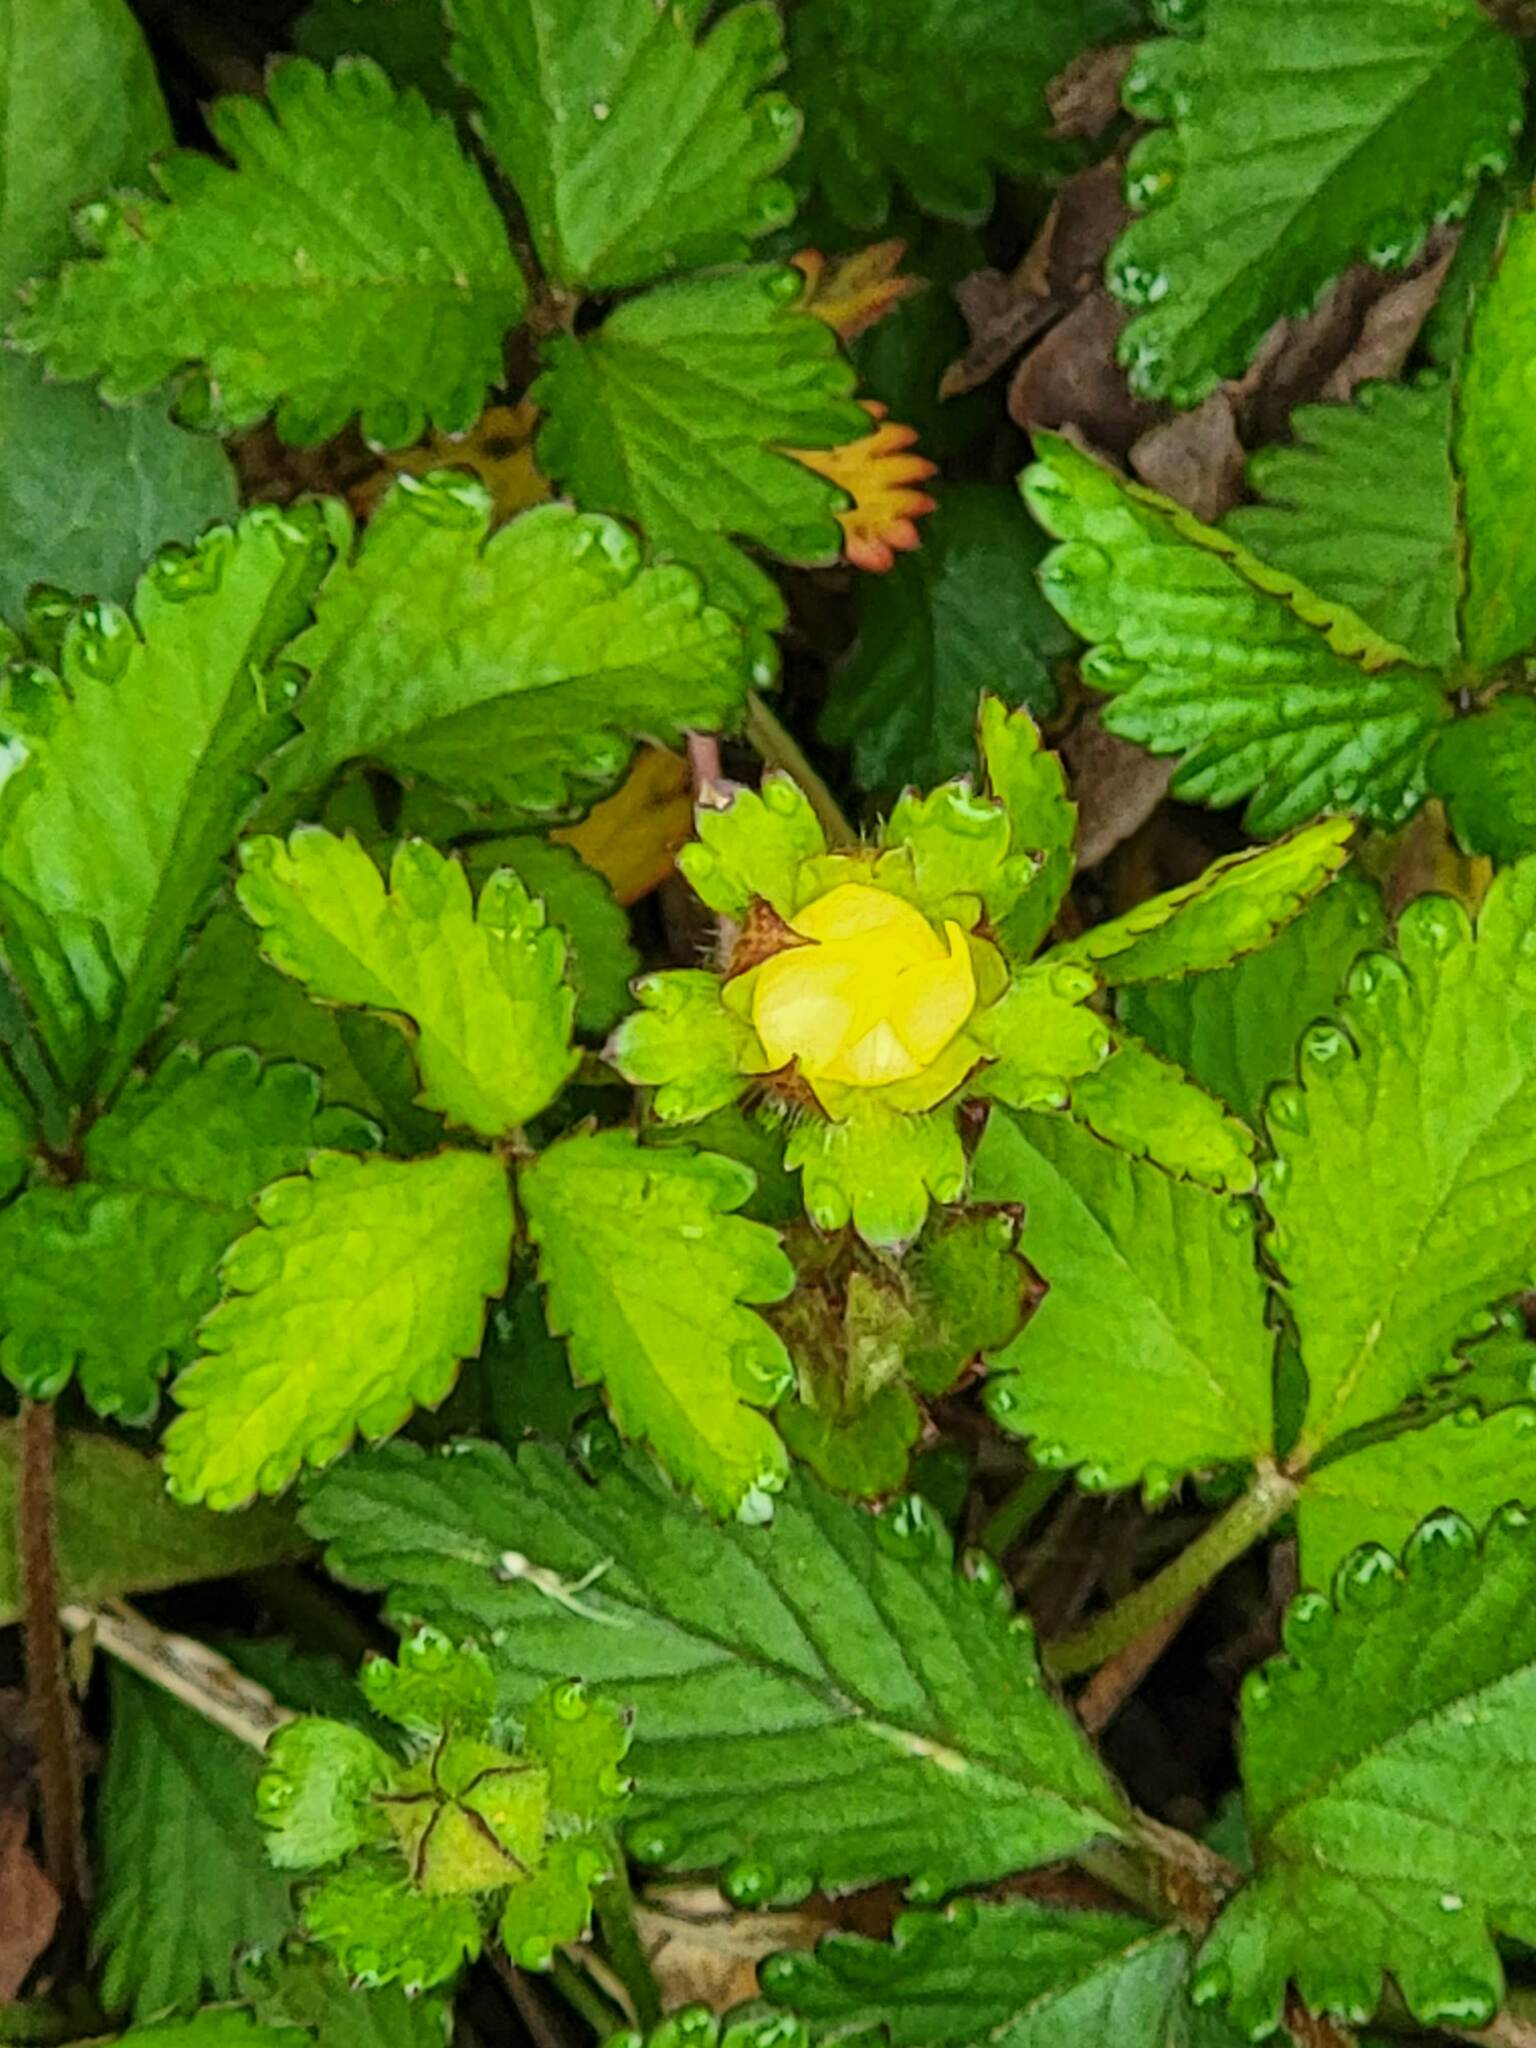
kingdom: Plantae
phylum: Tracheophyta
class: Magnoliopsida
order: Rosales
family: Rosaceae
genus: Potentilla
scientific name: Potentilla indica
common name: Yellow-flowered strawberry
